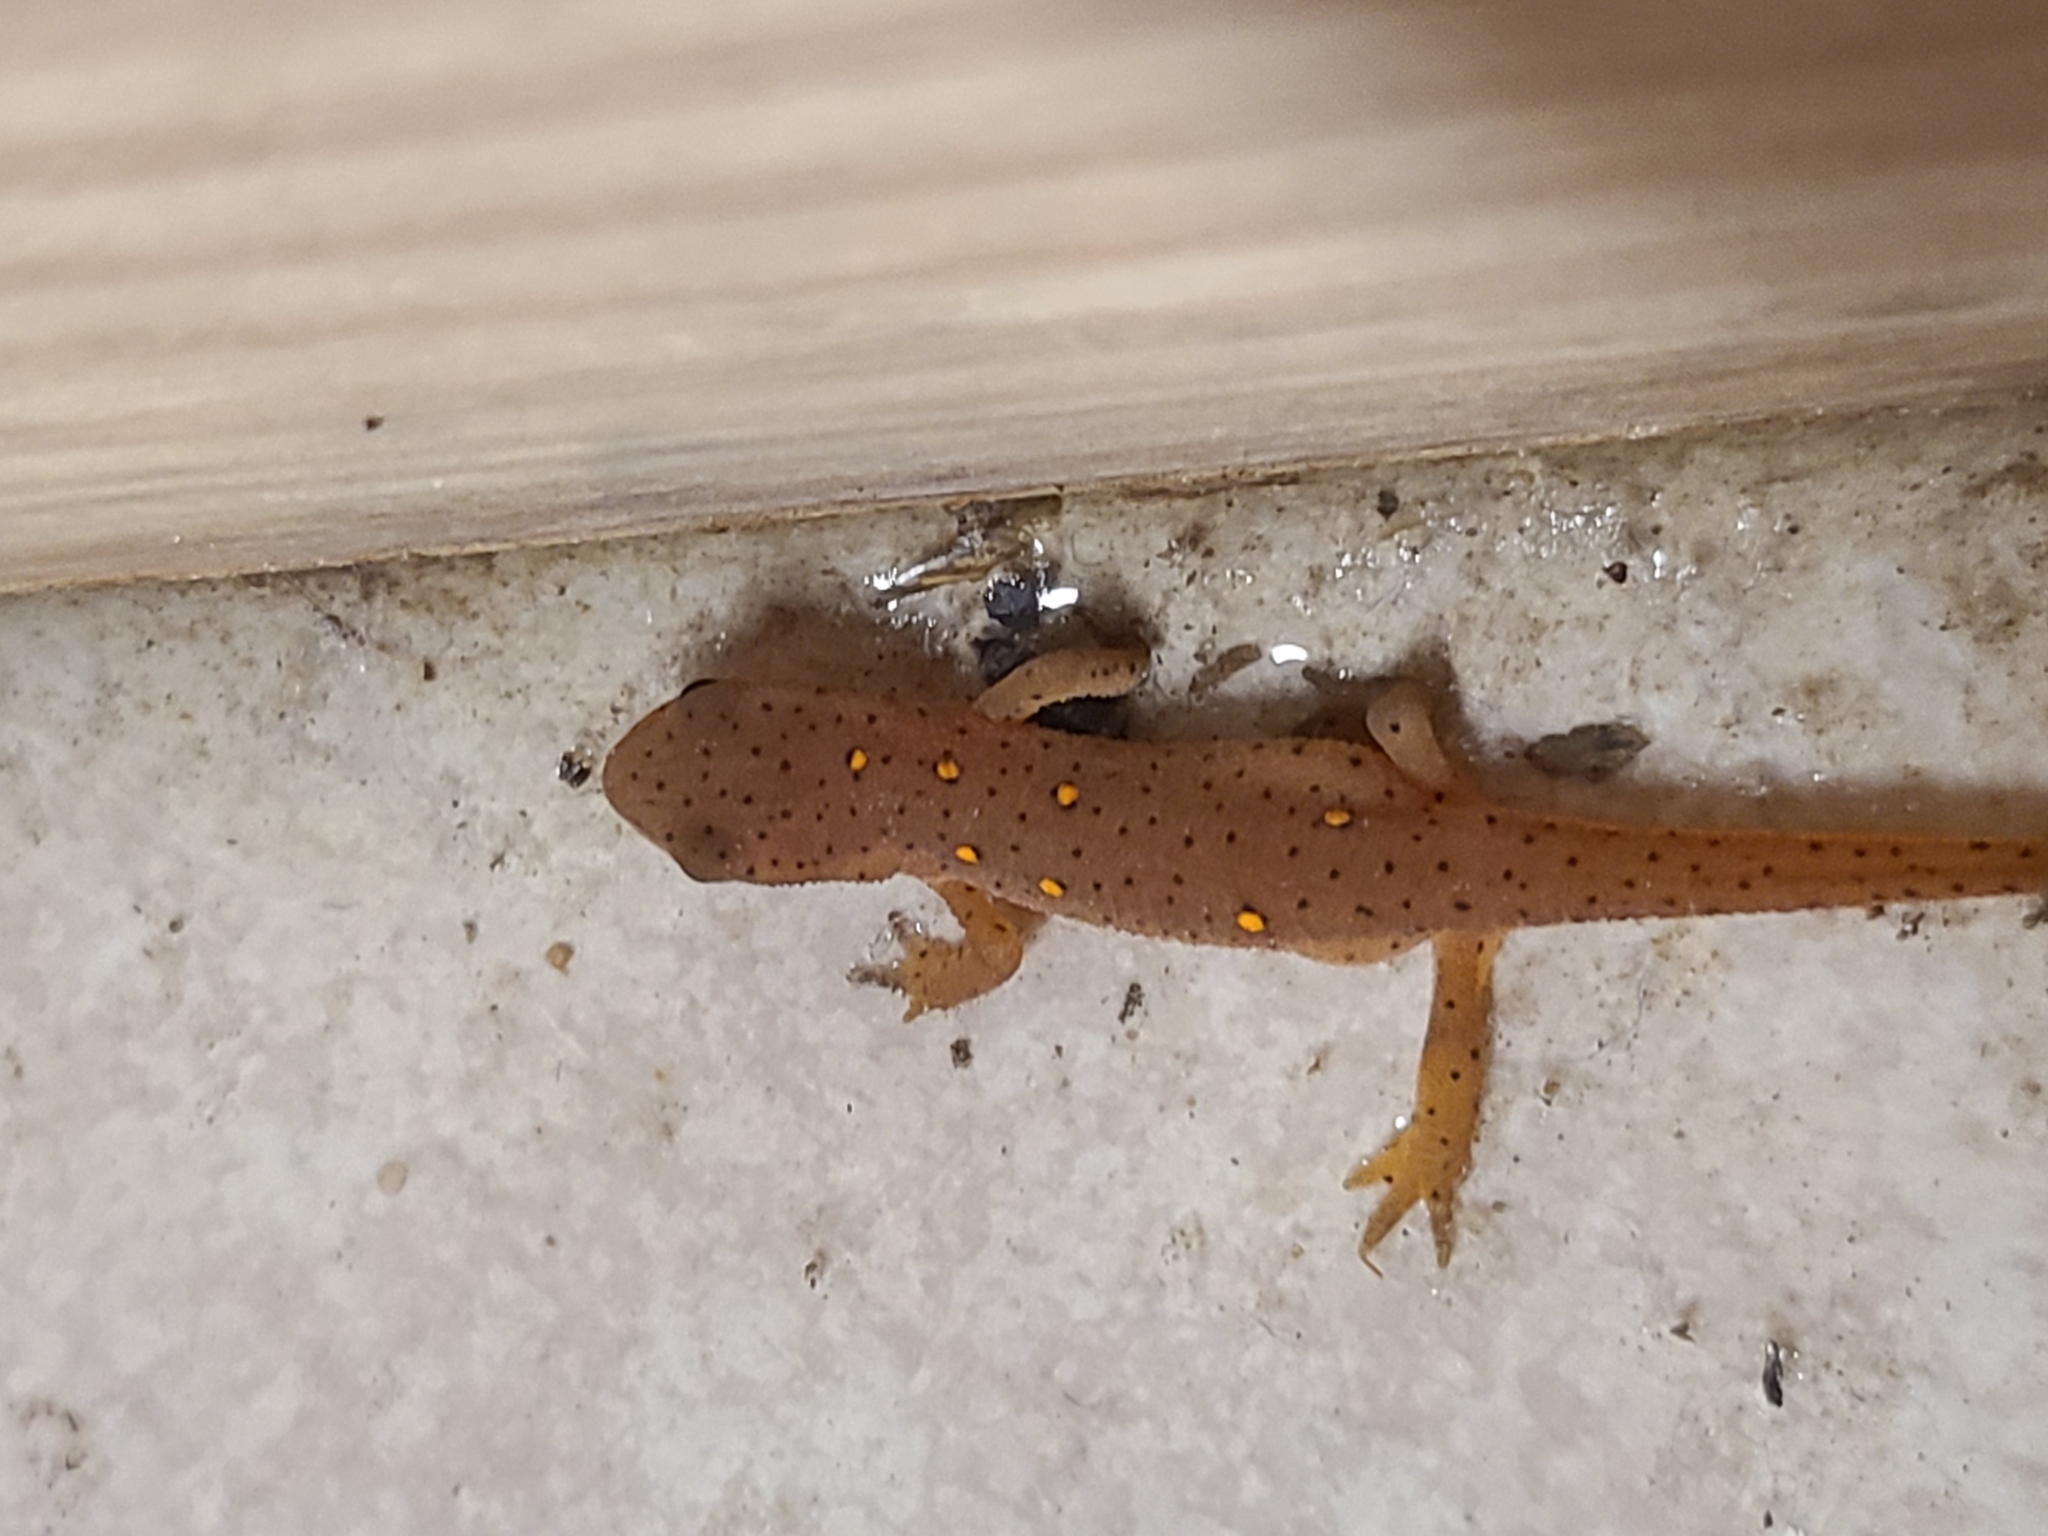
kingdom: Animalia
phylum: Chordata
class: Amphibia
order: Caudata
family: Salamandridae
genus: Notophthalmus
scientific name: Notophthalmus viridescens
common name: Eastern newt
